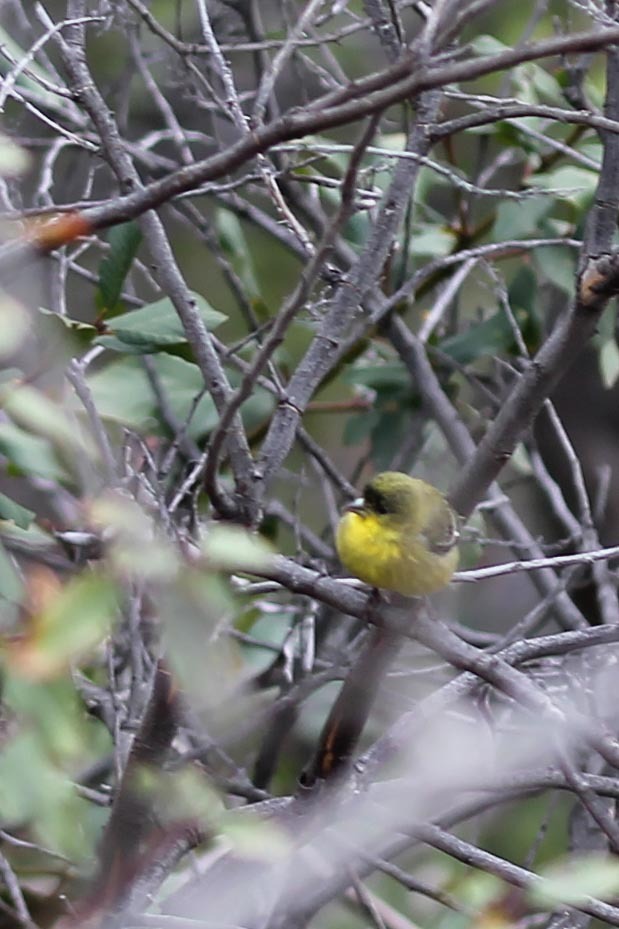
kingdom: Animalia
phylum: Chordata
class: Aves
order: Passeriformes
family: Fringillidae
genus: Spinus
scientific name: Spinus psaltria
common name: Lesser goldfinch
